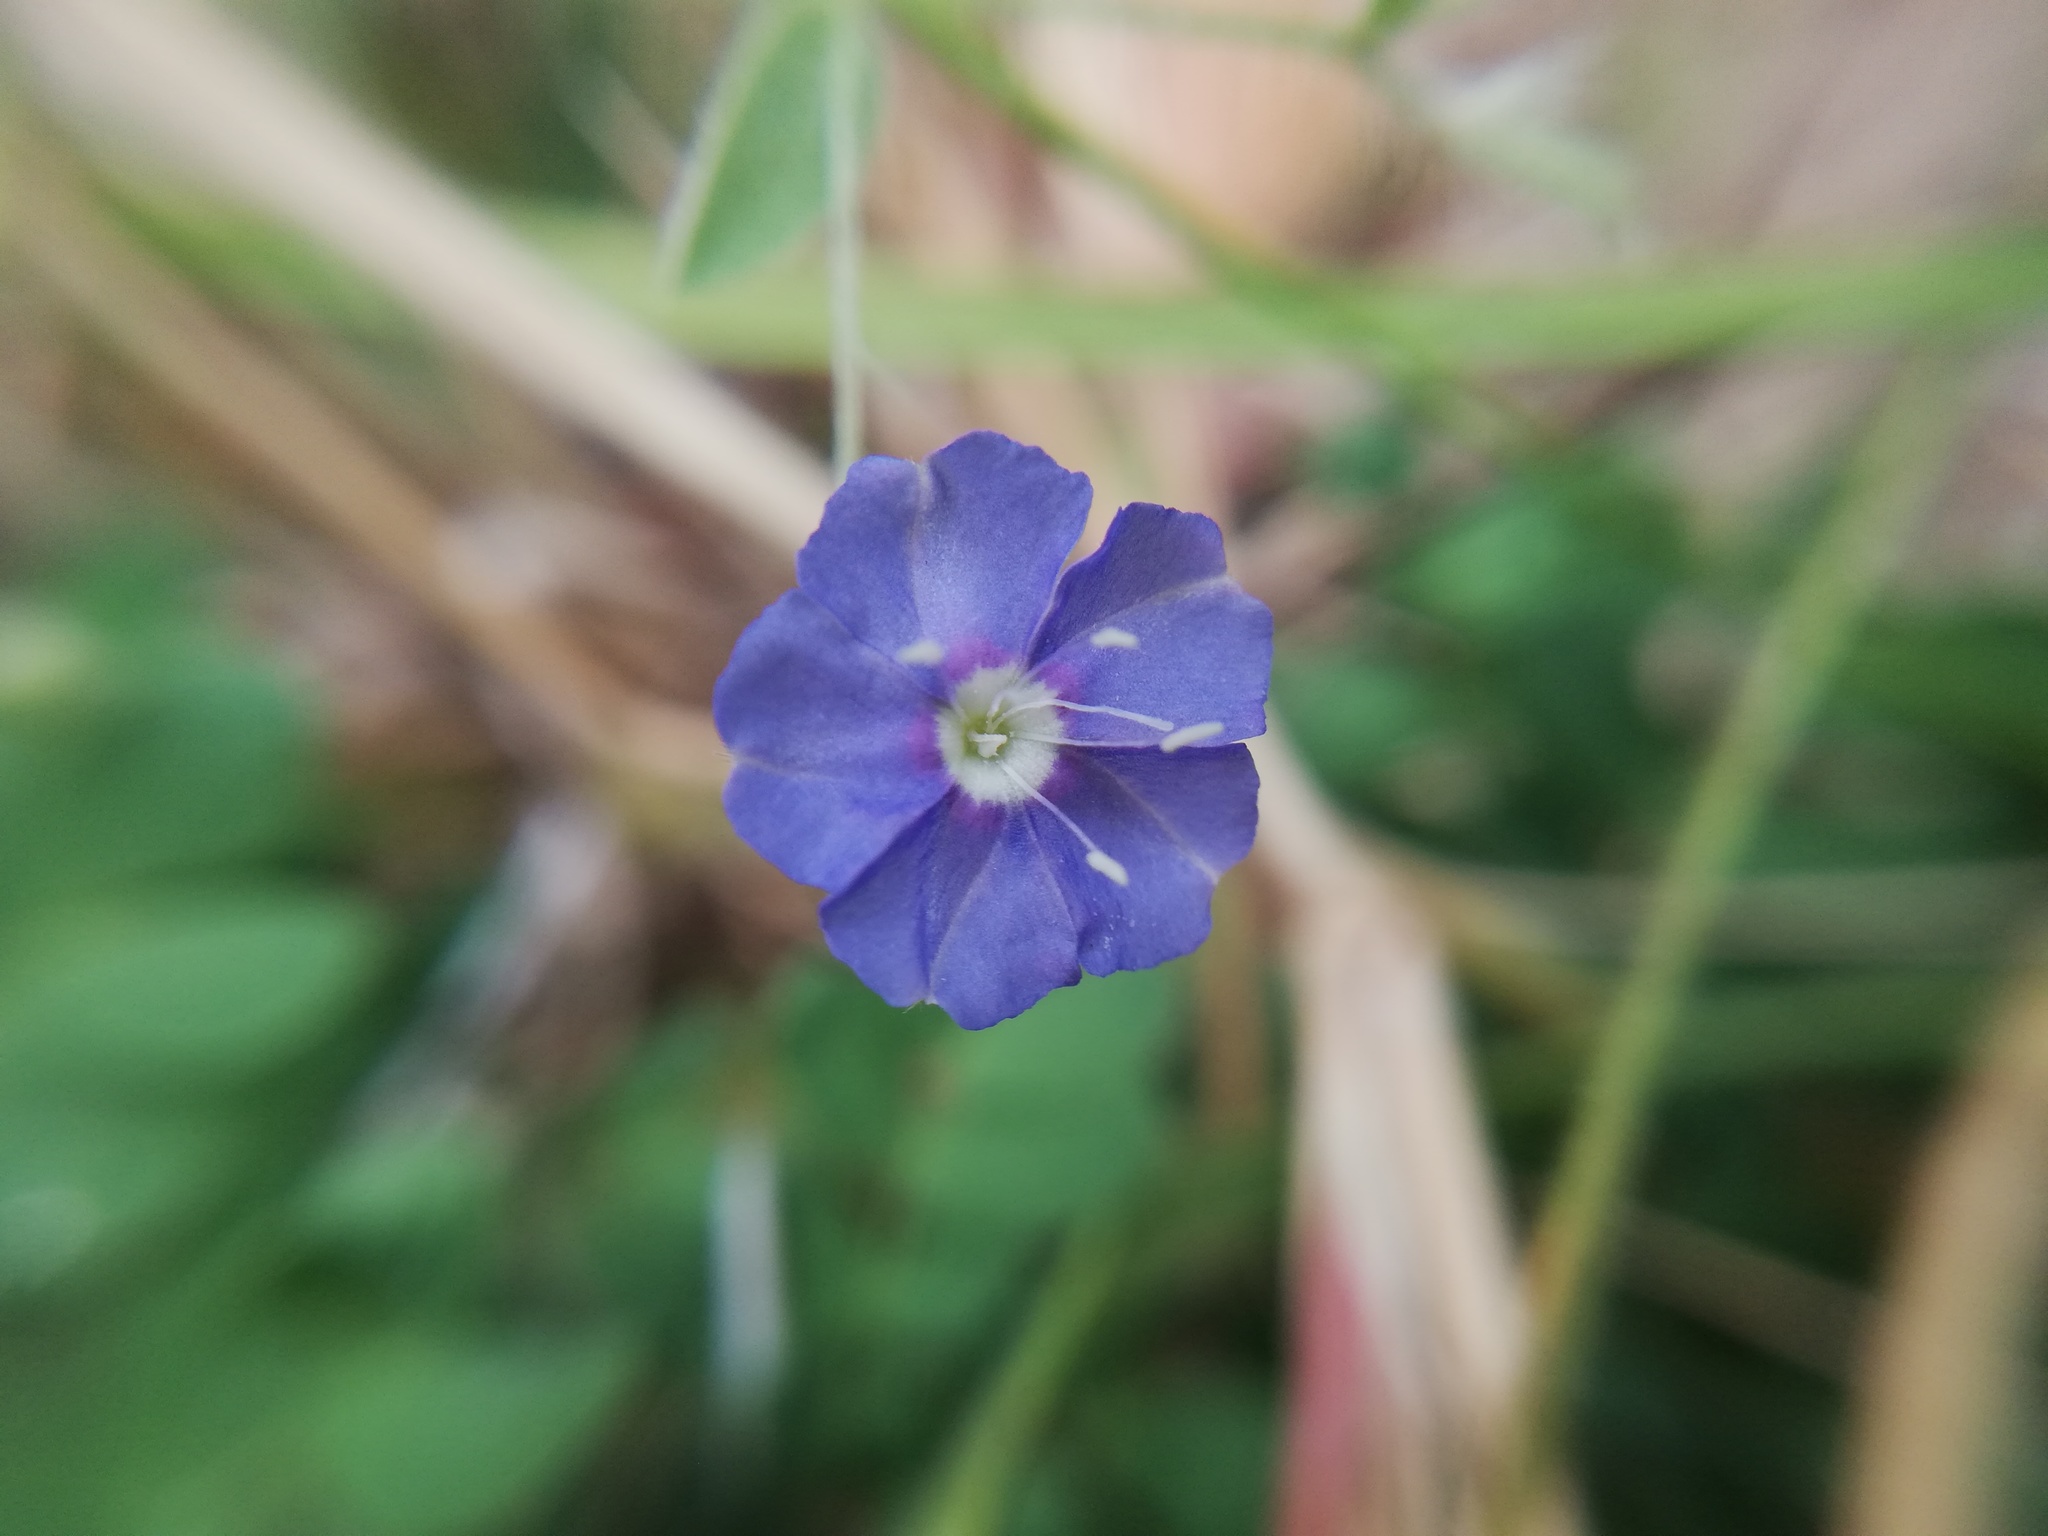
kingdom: Plantae
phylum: Tracheophyta
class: Magnoliopsida
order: Solanales
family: Convolvulaceae
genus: Evolvulus
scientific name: Evolvulus alsinoides
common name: Slender dwarf morning-glory
